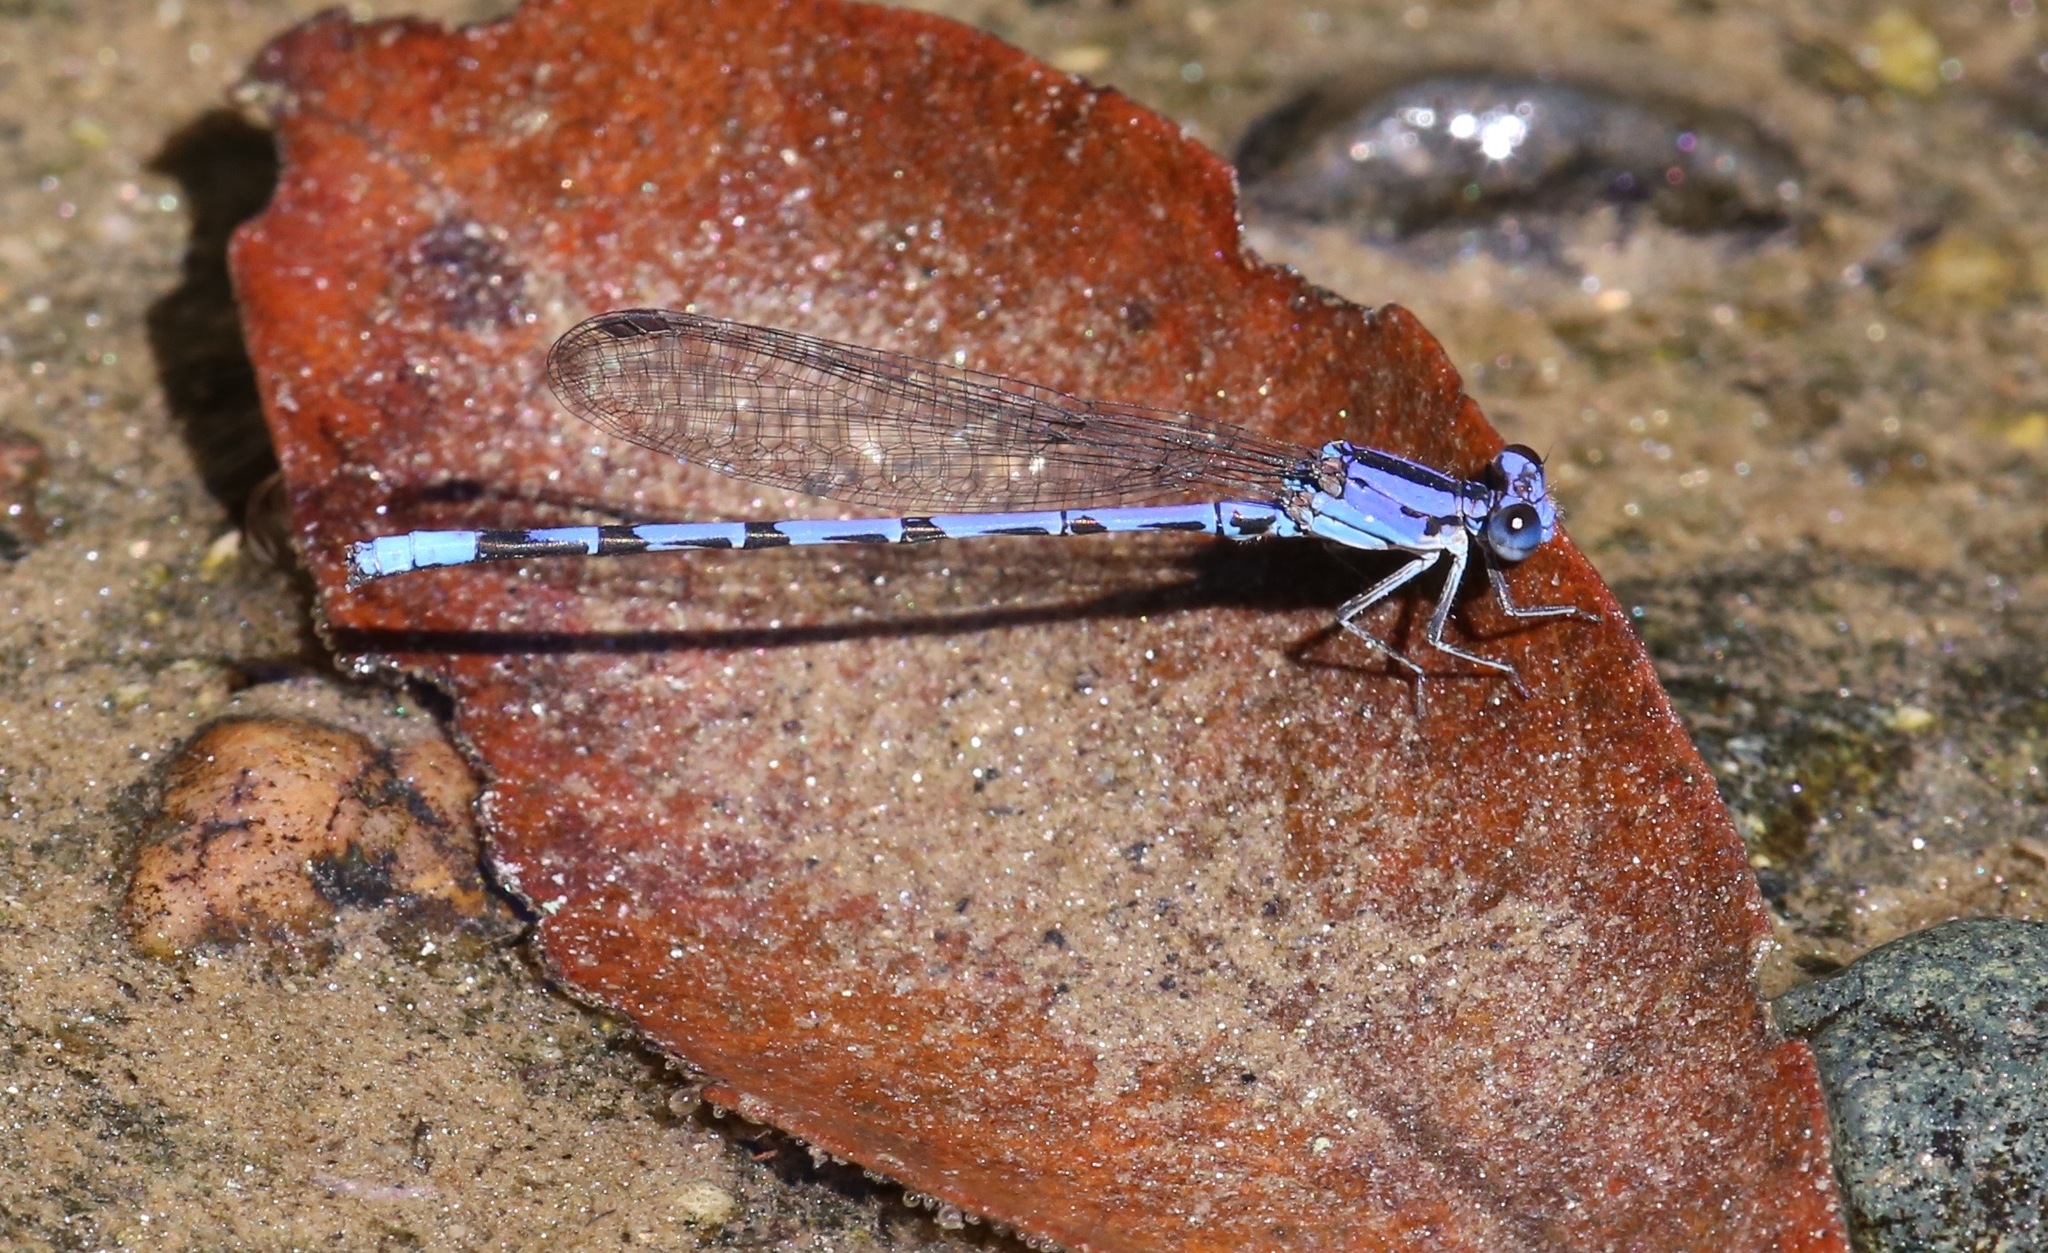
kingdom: Animalia
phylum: Arthropoda
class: Insecta
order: Odonata
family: Coenagrionidae
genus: Argia
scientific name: Argia extranea
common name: Spine-tipped dancer
